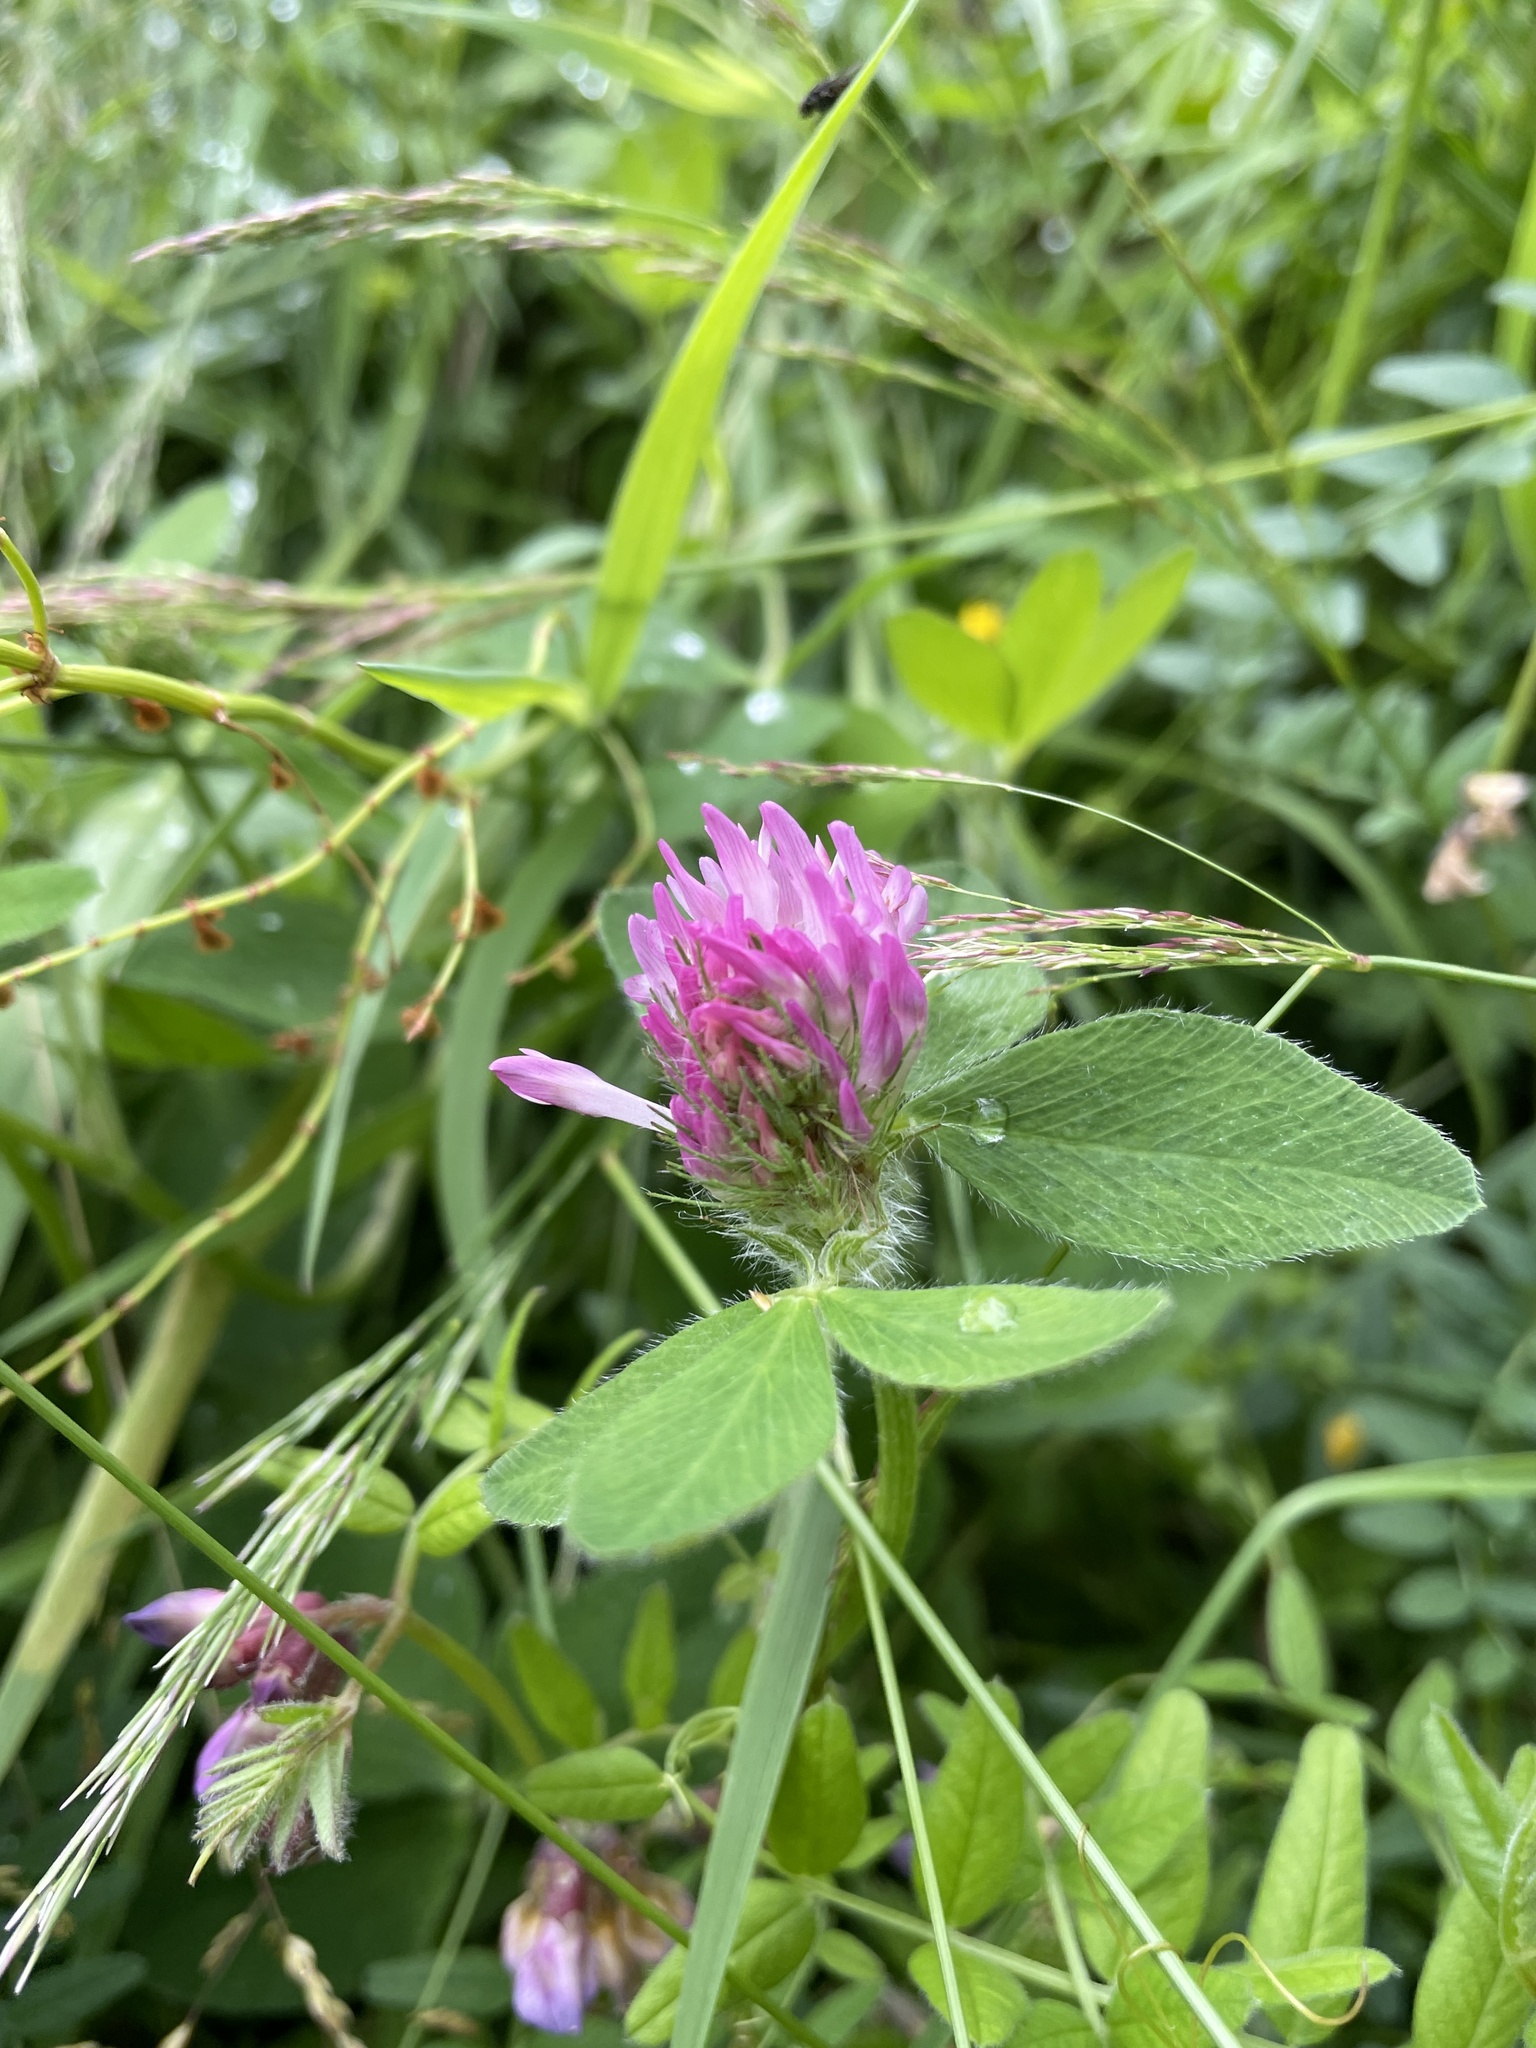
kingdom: Plantae
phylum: Tracheophyta
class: Magnoliopsida
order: Fabales
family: Fabaceae
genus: Trifolium
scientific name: Trifolium pratense
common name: Red clover
